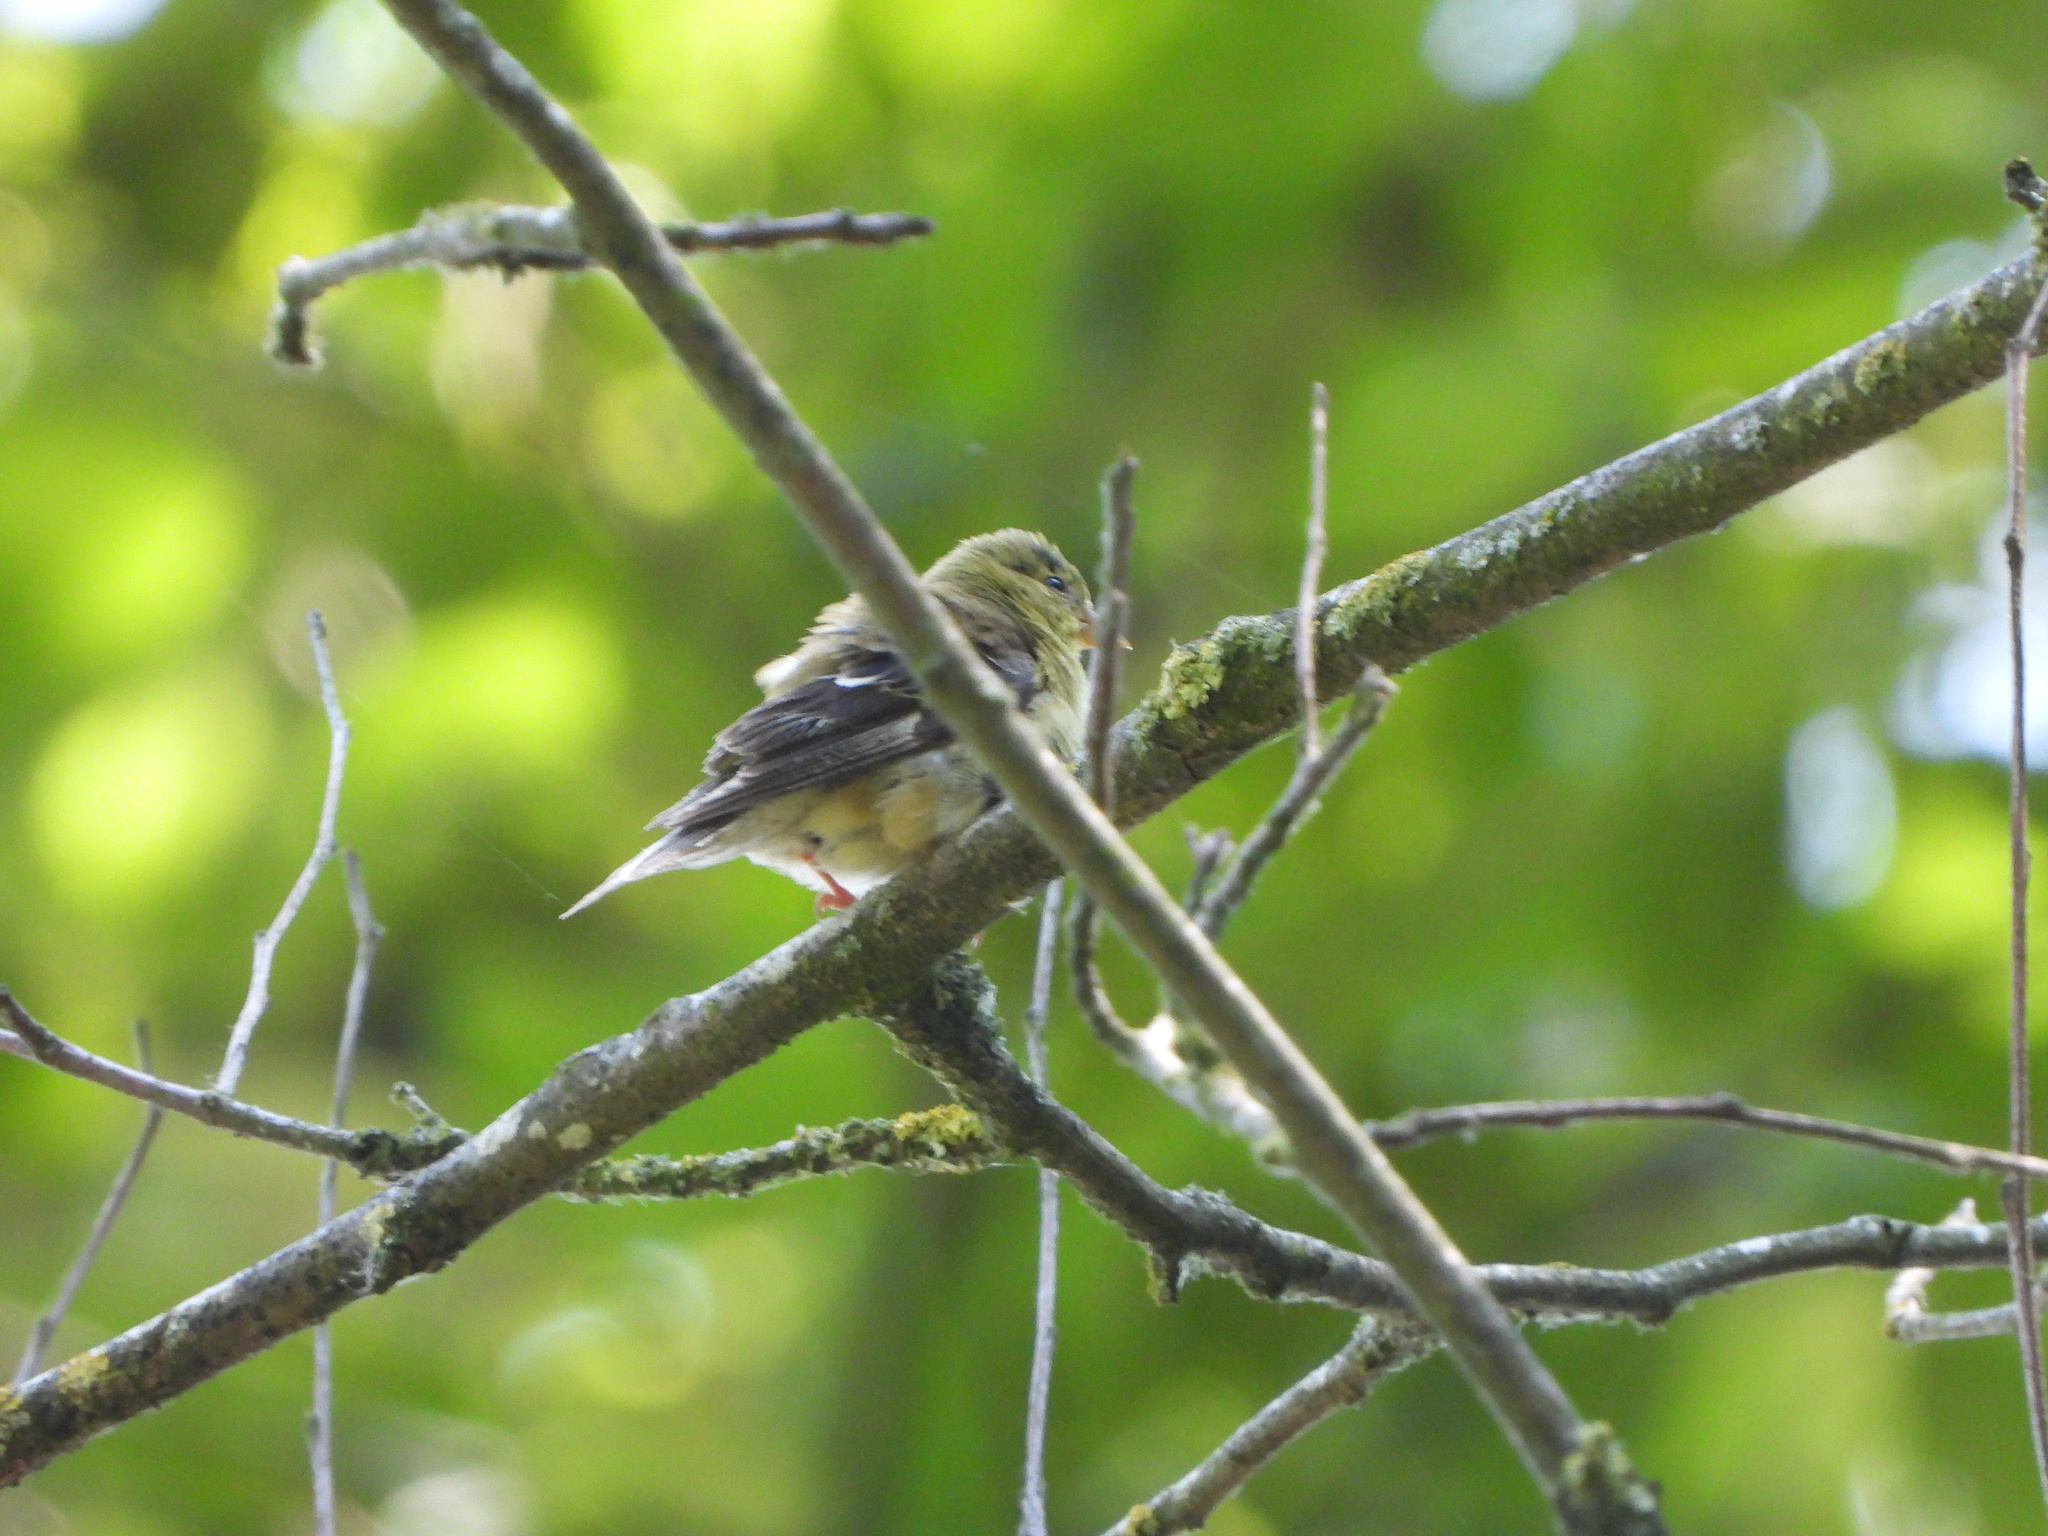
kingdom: Animalia
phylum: Chordata
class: Aves
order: Passeriformes
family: Fringillidae
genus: Spinus
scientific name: Spinus tristis
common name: American goldfinch
